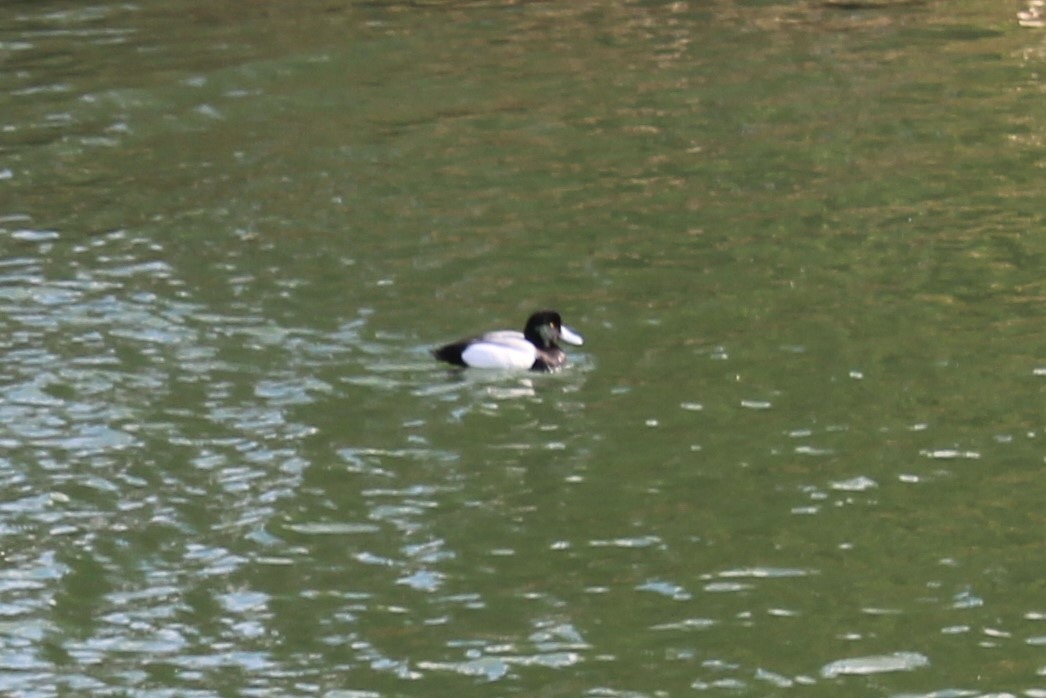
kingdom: Animalia
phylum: Chordata
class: Aves
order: Anseriformes
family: Anatidae
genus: Aythya
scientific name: Aythya marila
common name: Greater scaup
